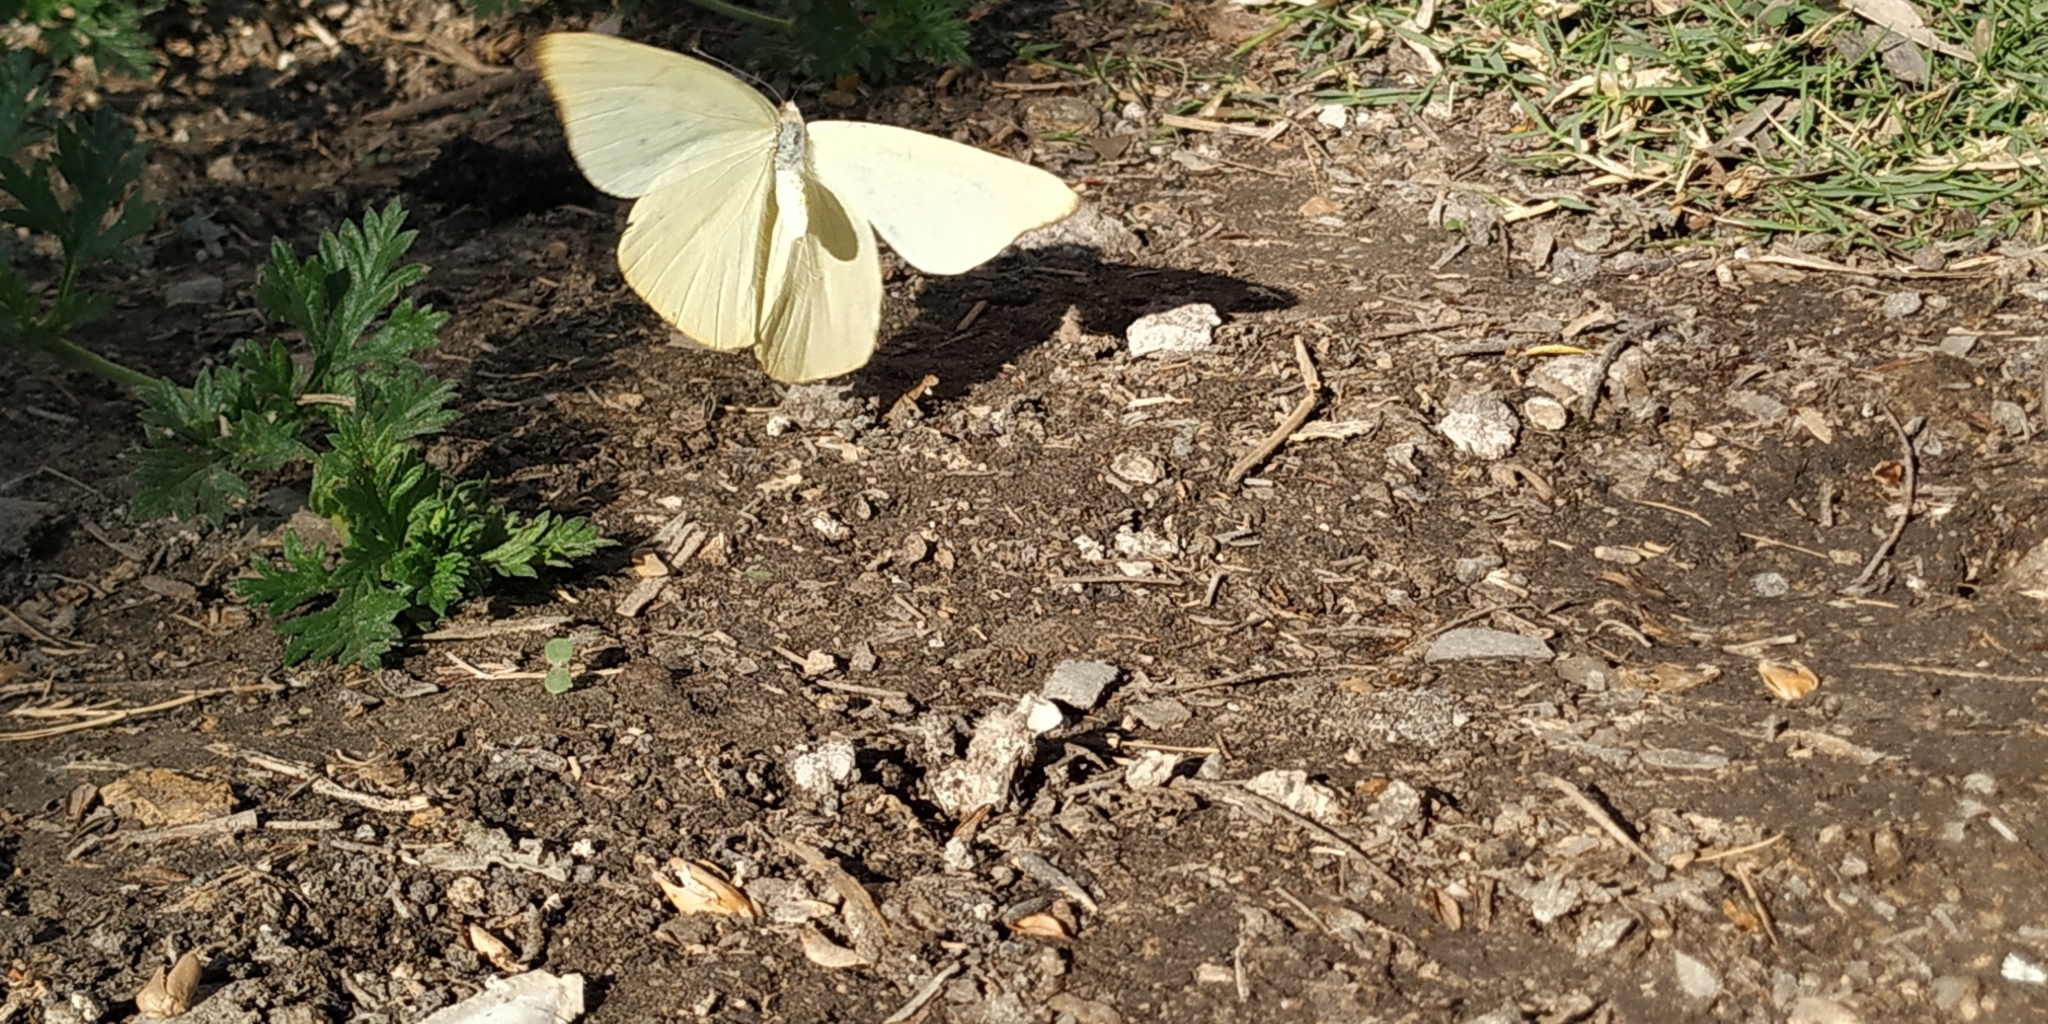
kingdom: Animalia
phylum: Arthropoda
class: Insecta
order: Lepidoptera
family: Pieridae
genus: Melete
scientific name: Melete lycimnia
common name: Common melwhite
